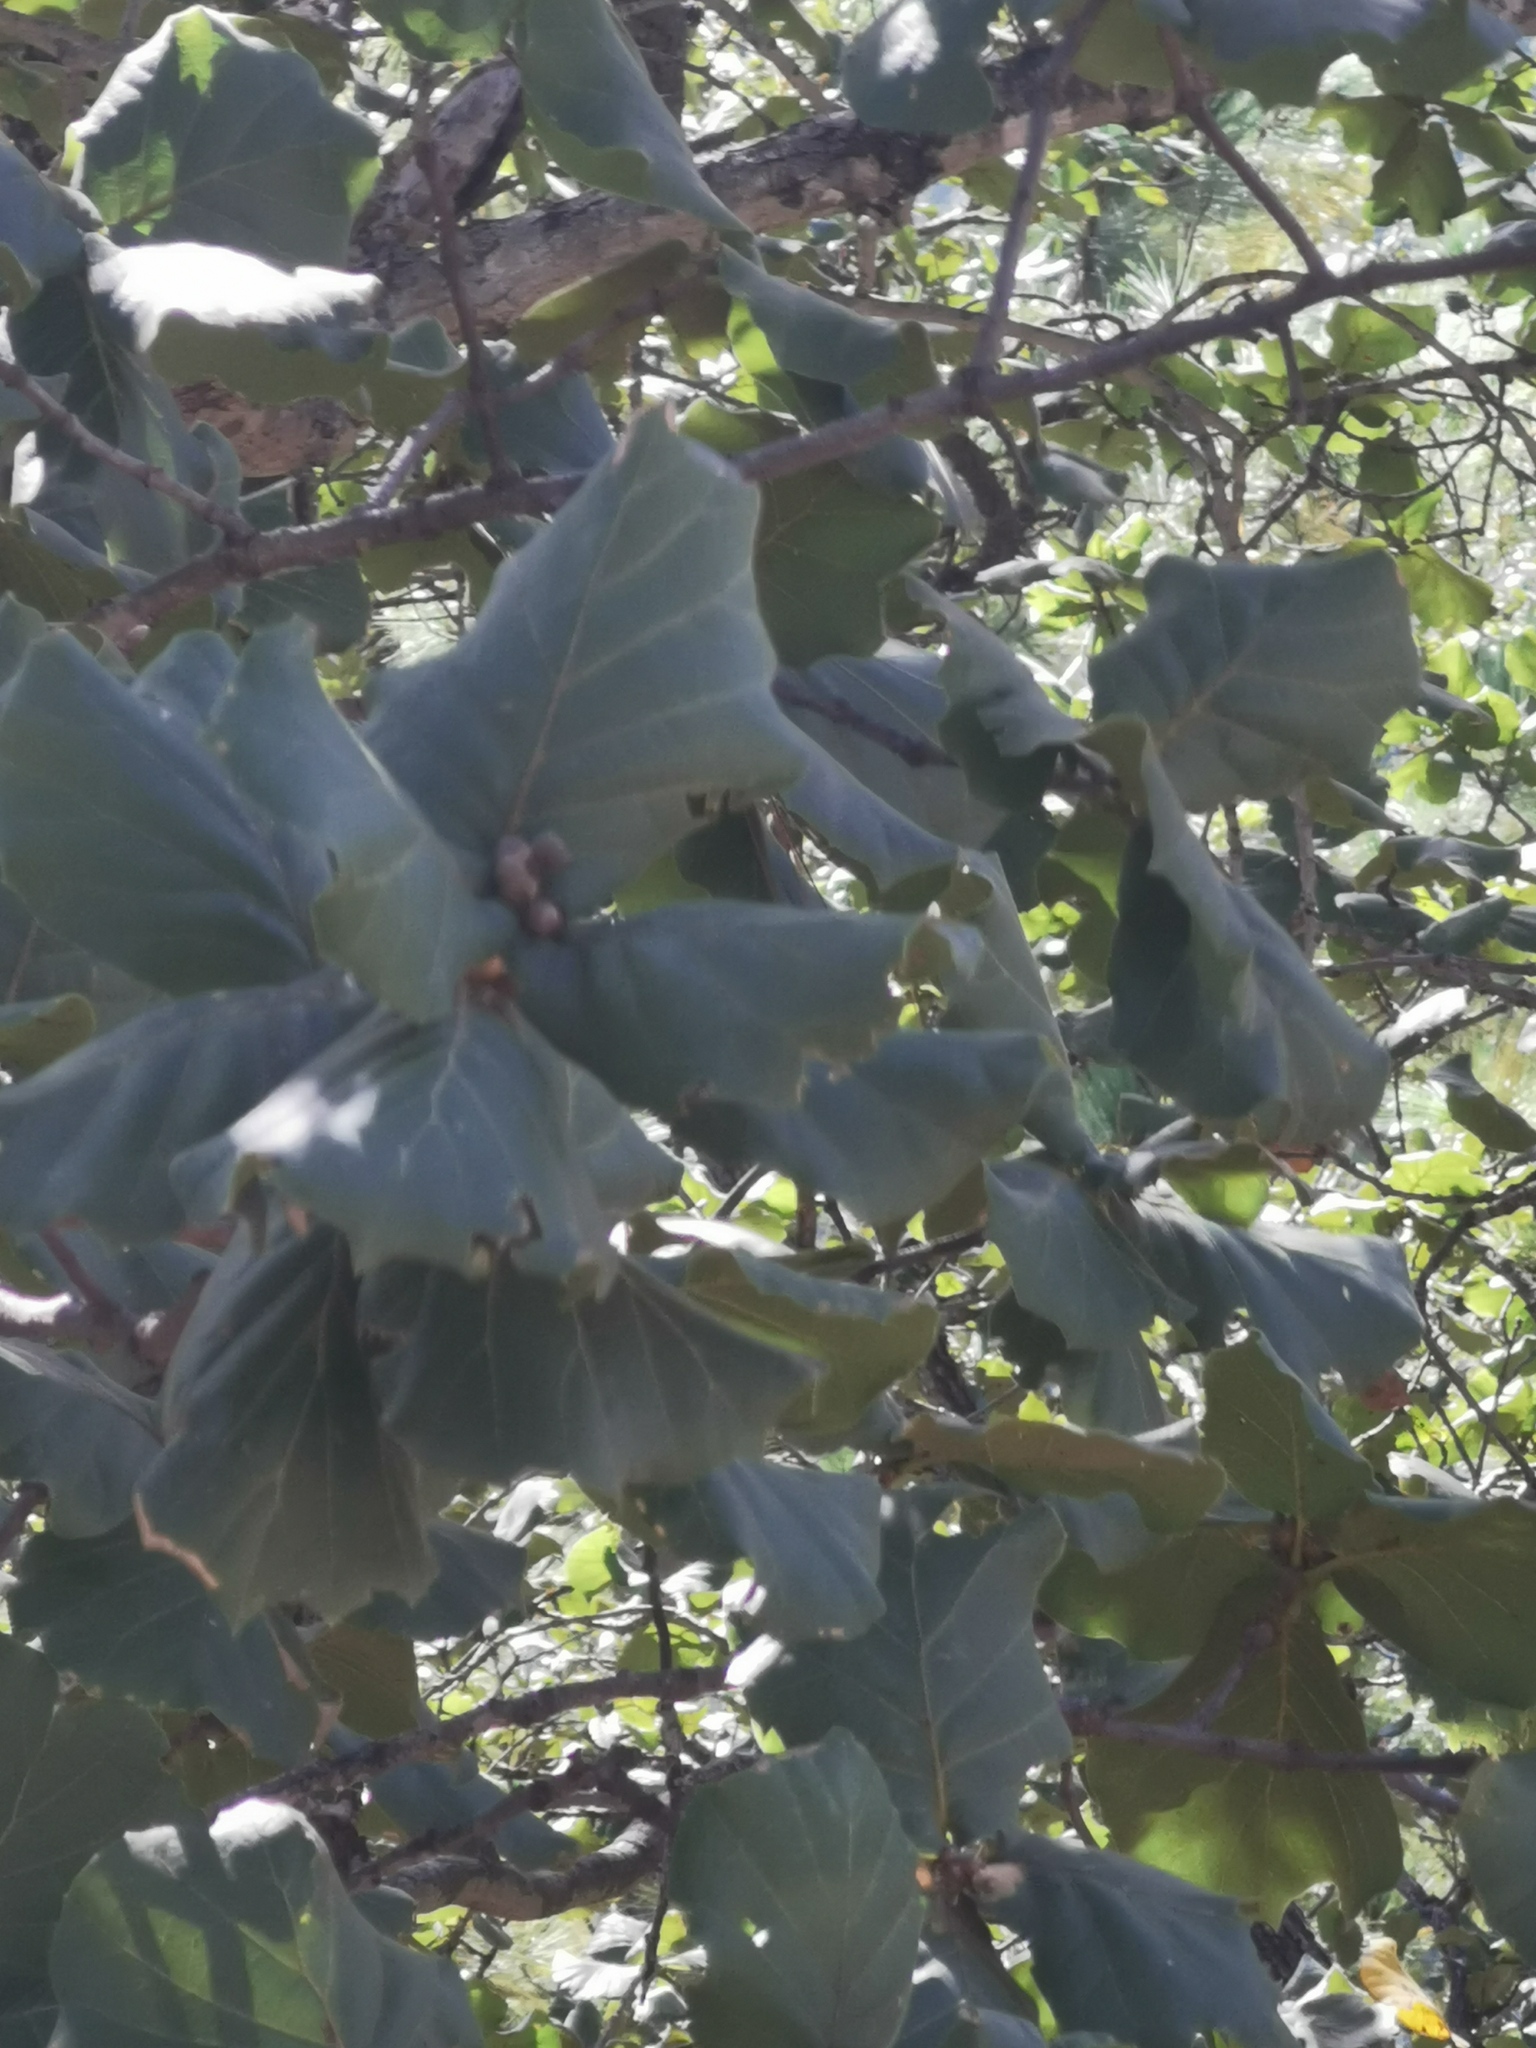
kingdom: Plantae
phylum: Tracheophyta
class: Magnoliopsida
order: Fagales
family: Fagaceae
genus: Quercus
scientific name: Quercus radiata
